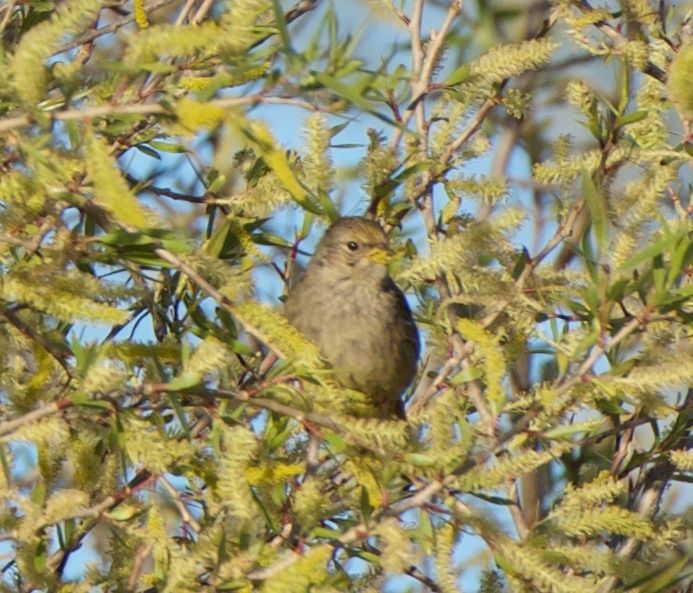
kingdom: Animalia
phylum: Chordata
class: Aves
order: Passeriformes
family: Passerellidae
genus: Zonotrichia
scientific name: Zonotrichia atricapilla
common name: Golden-crowned sparrow
